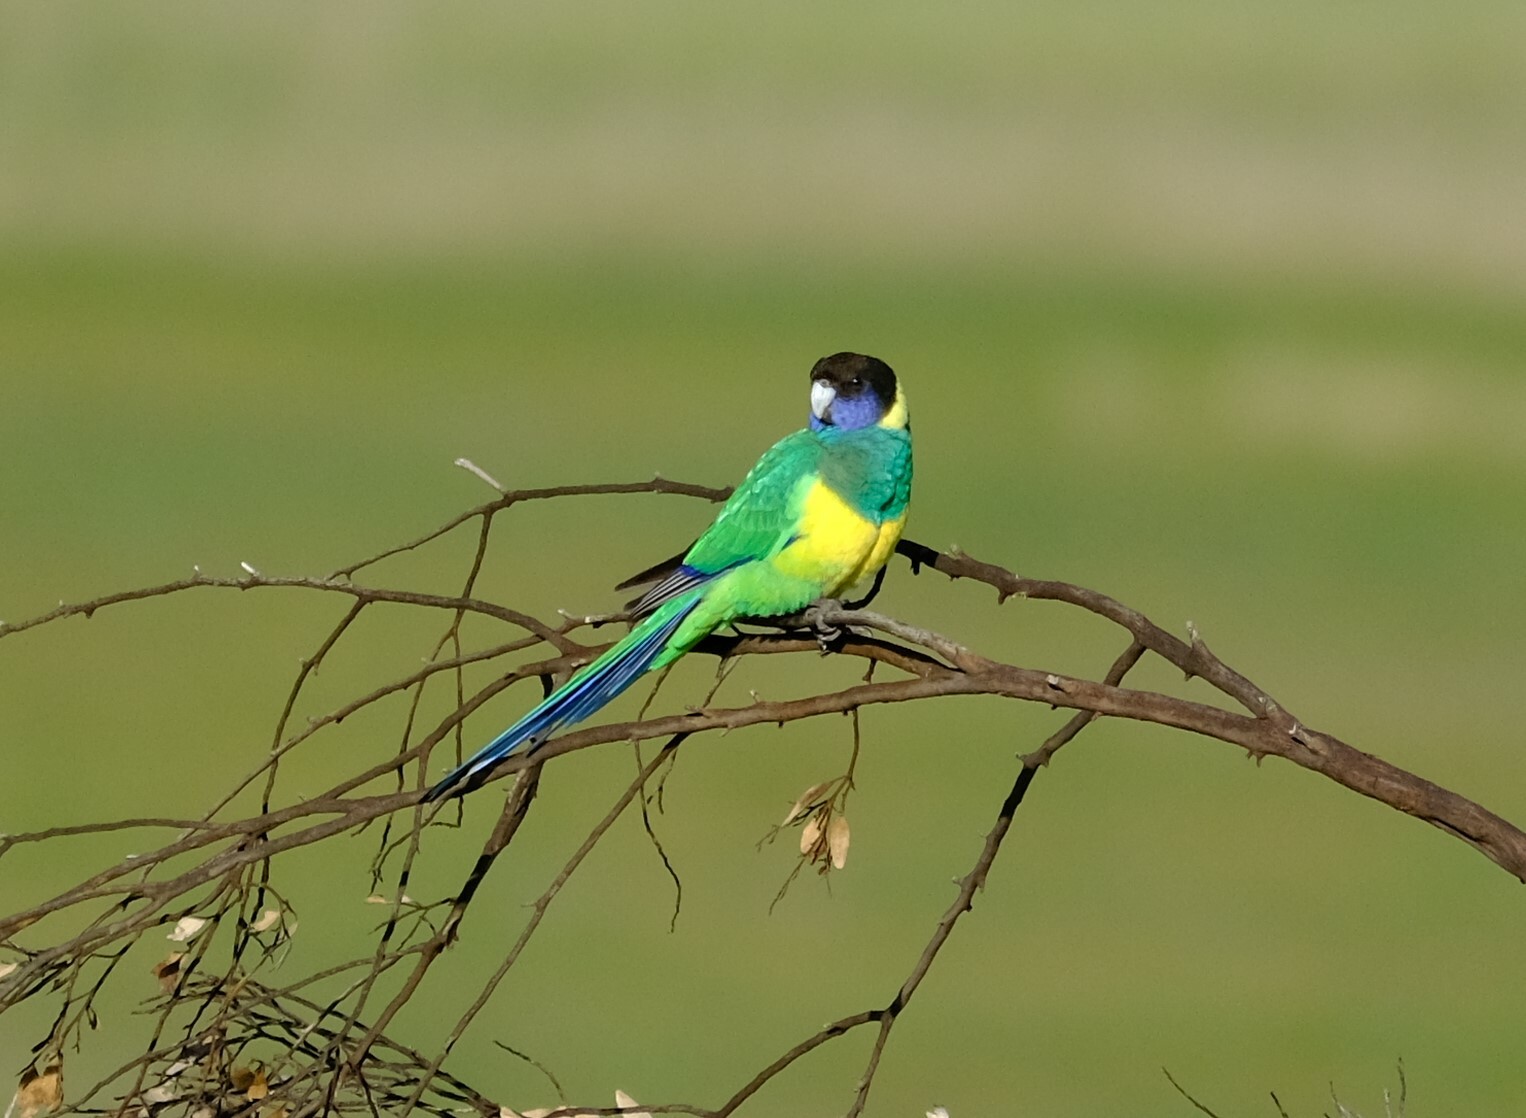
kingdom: Animalia
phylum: Chordata
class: Aves
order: Psittaciformes
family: Psittacidae
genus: Barnardius
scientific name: Barnardius zonarius
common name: Australian ringneck
